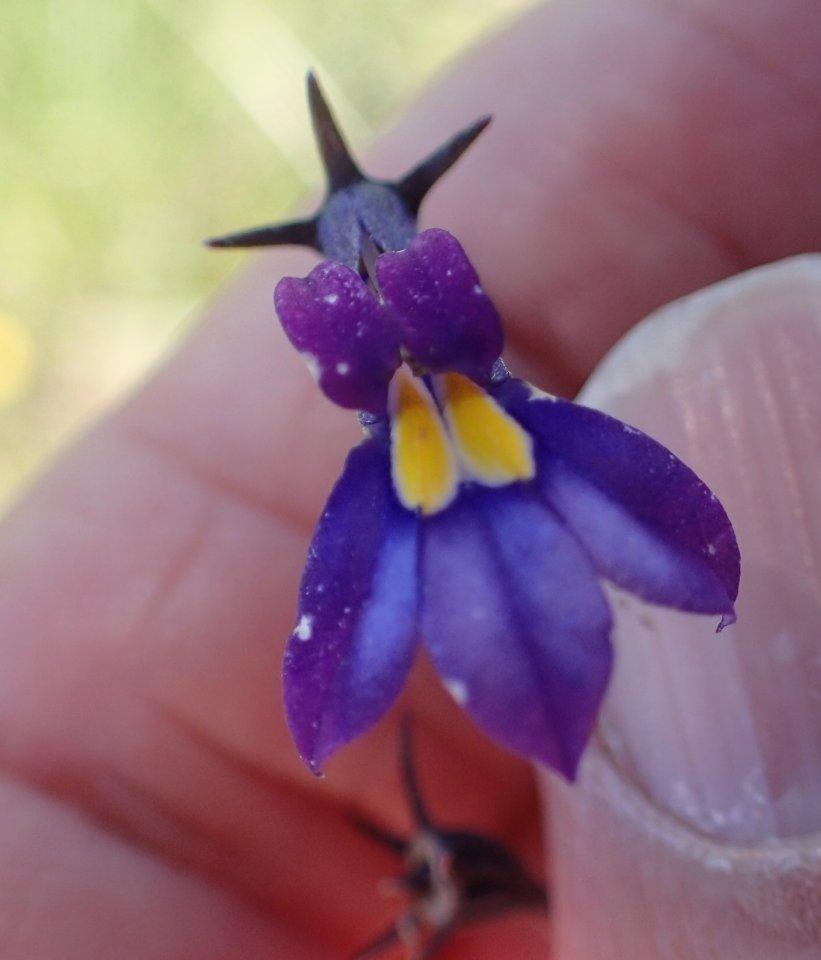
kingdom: Plantae
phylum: Tracheophyta
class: Magnoliopsida
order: Asterales
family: Campanulaceae
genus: Monopsis
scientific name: Monopsis decipiens
